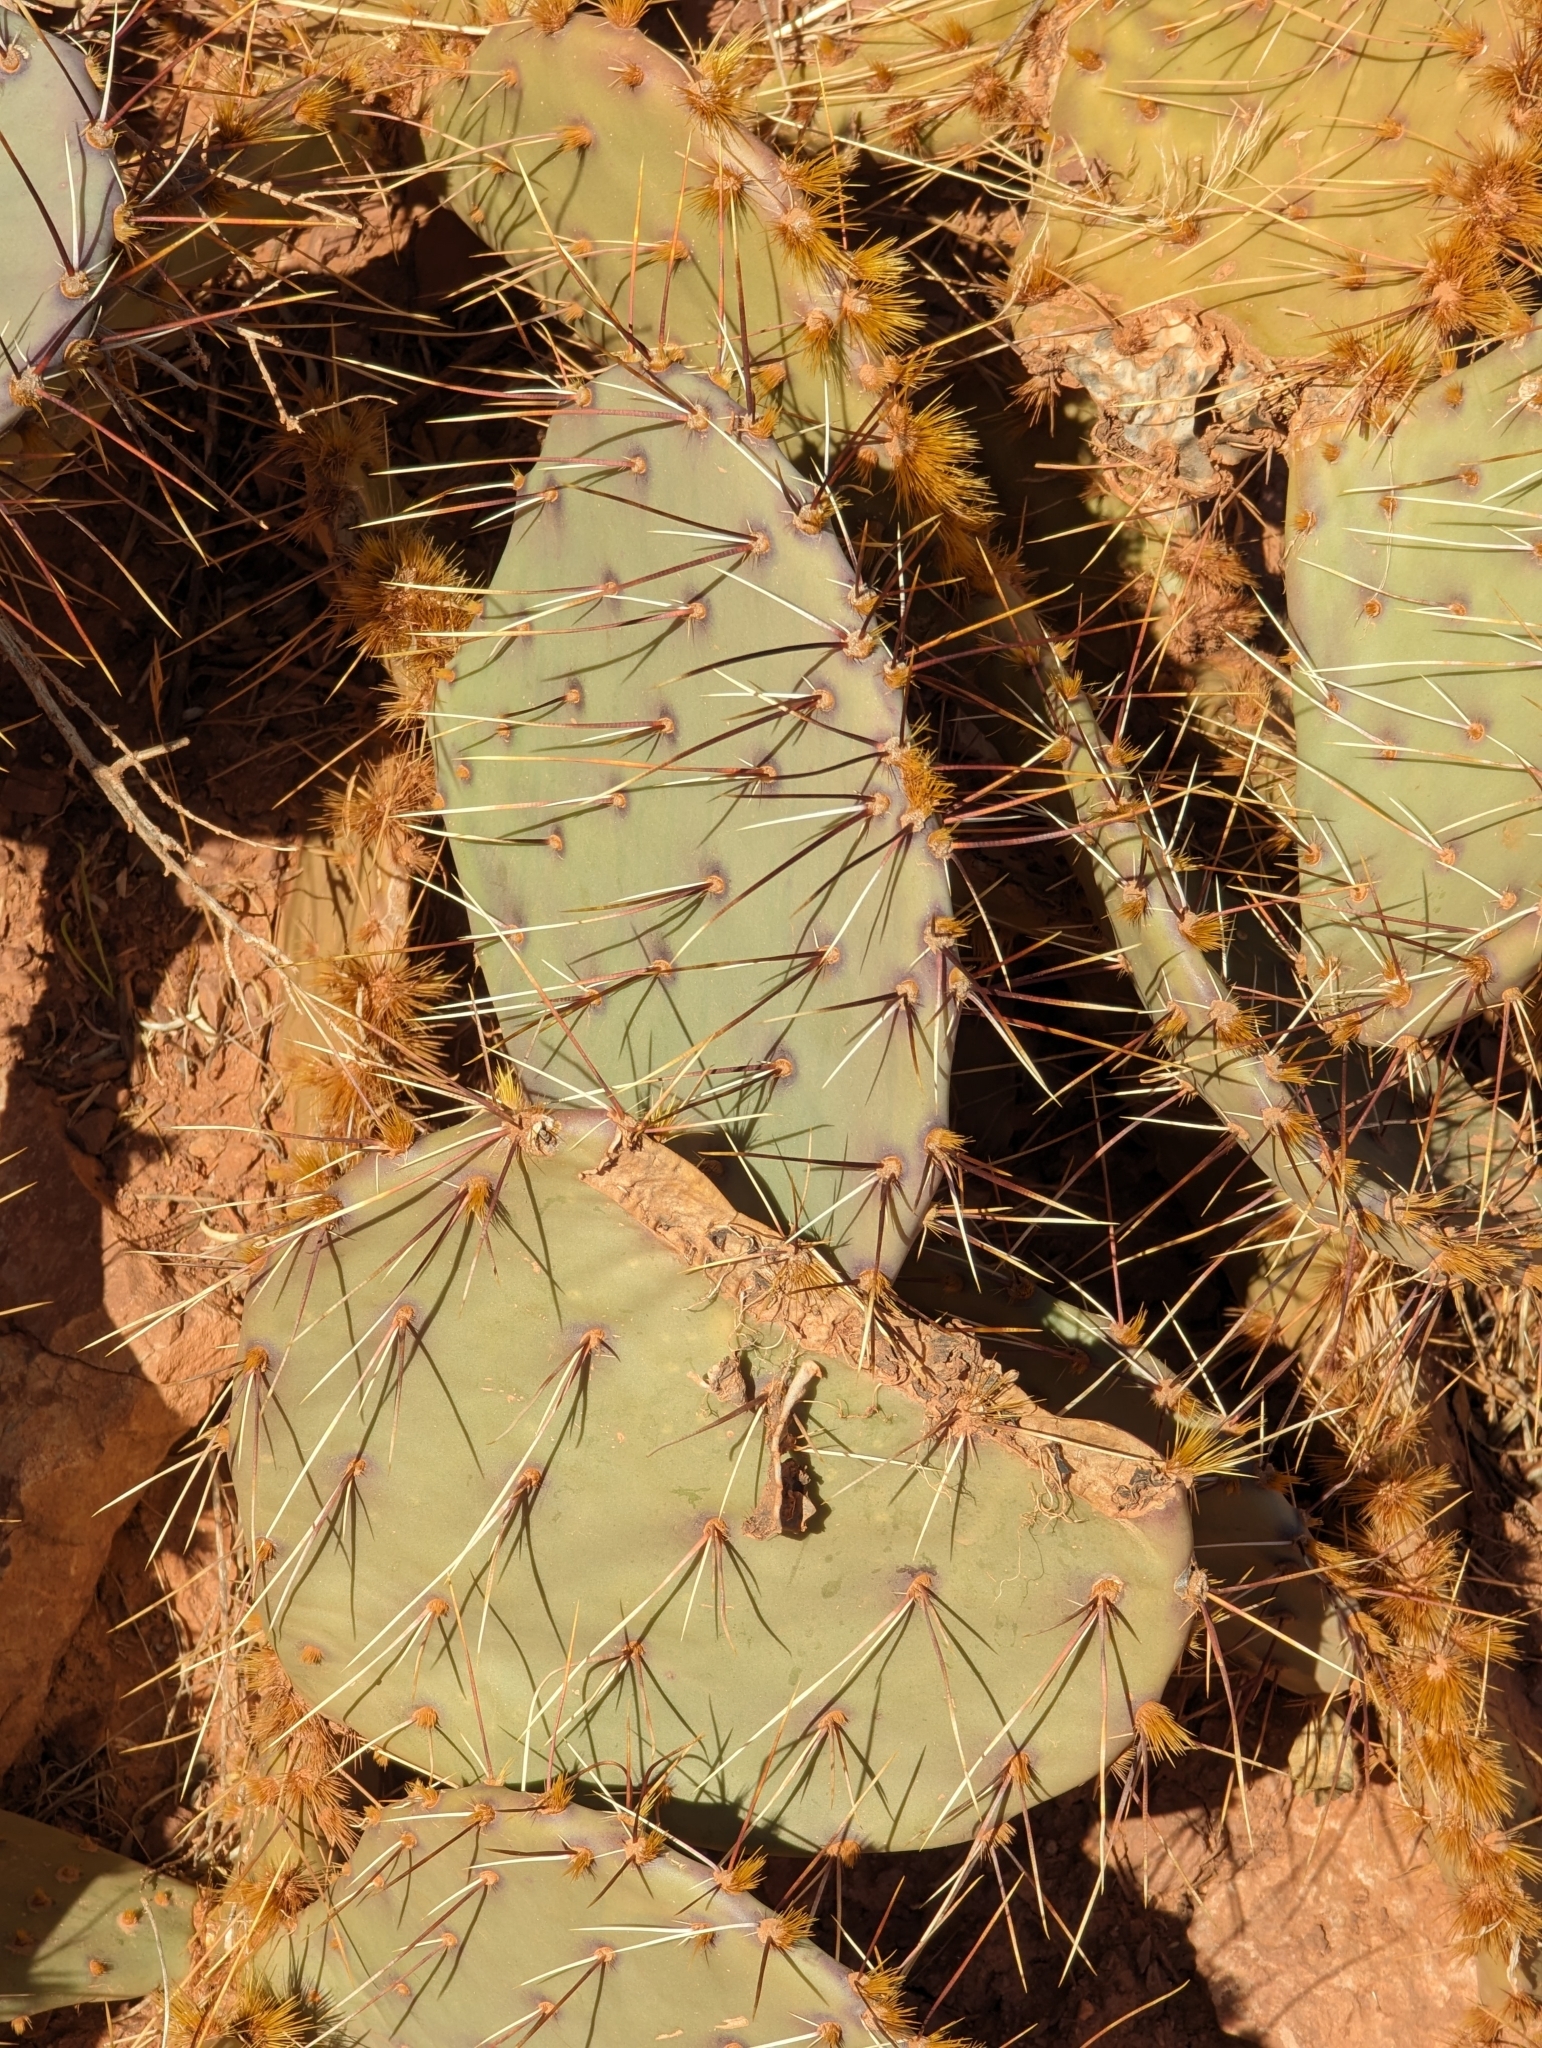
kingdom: Plantae
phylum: Tracheophyta
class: Magnoliopsida
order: Caryophyllales
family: Cactaceae
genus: Opuntia
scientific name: Opuntia phaeacantha
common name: New mexico prickly-pear
